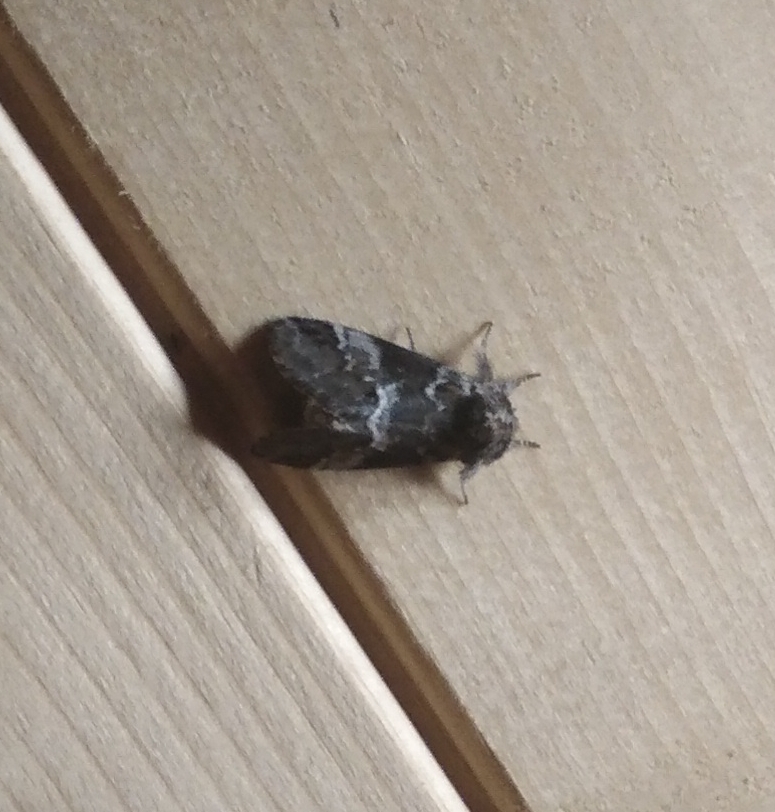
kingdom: Animalia
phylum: Arthropoda
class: Insecta
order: Lepidoptera
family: Notodontidae
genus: Drymonia
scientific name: Drymonia dodonides
